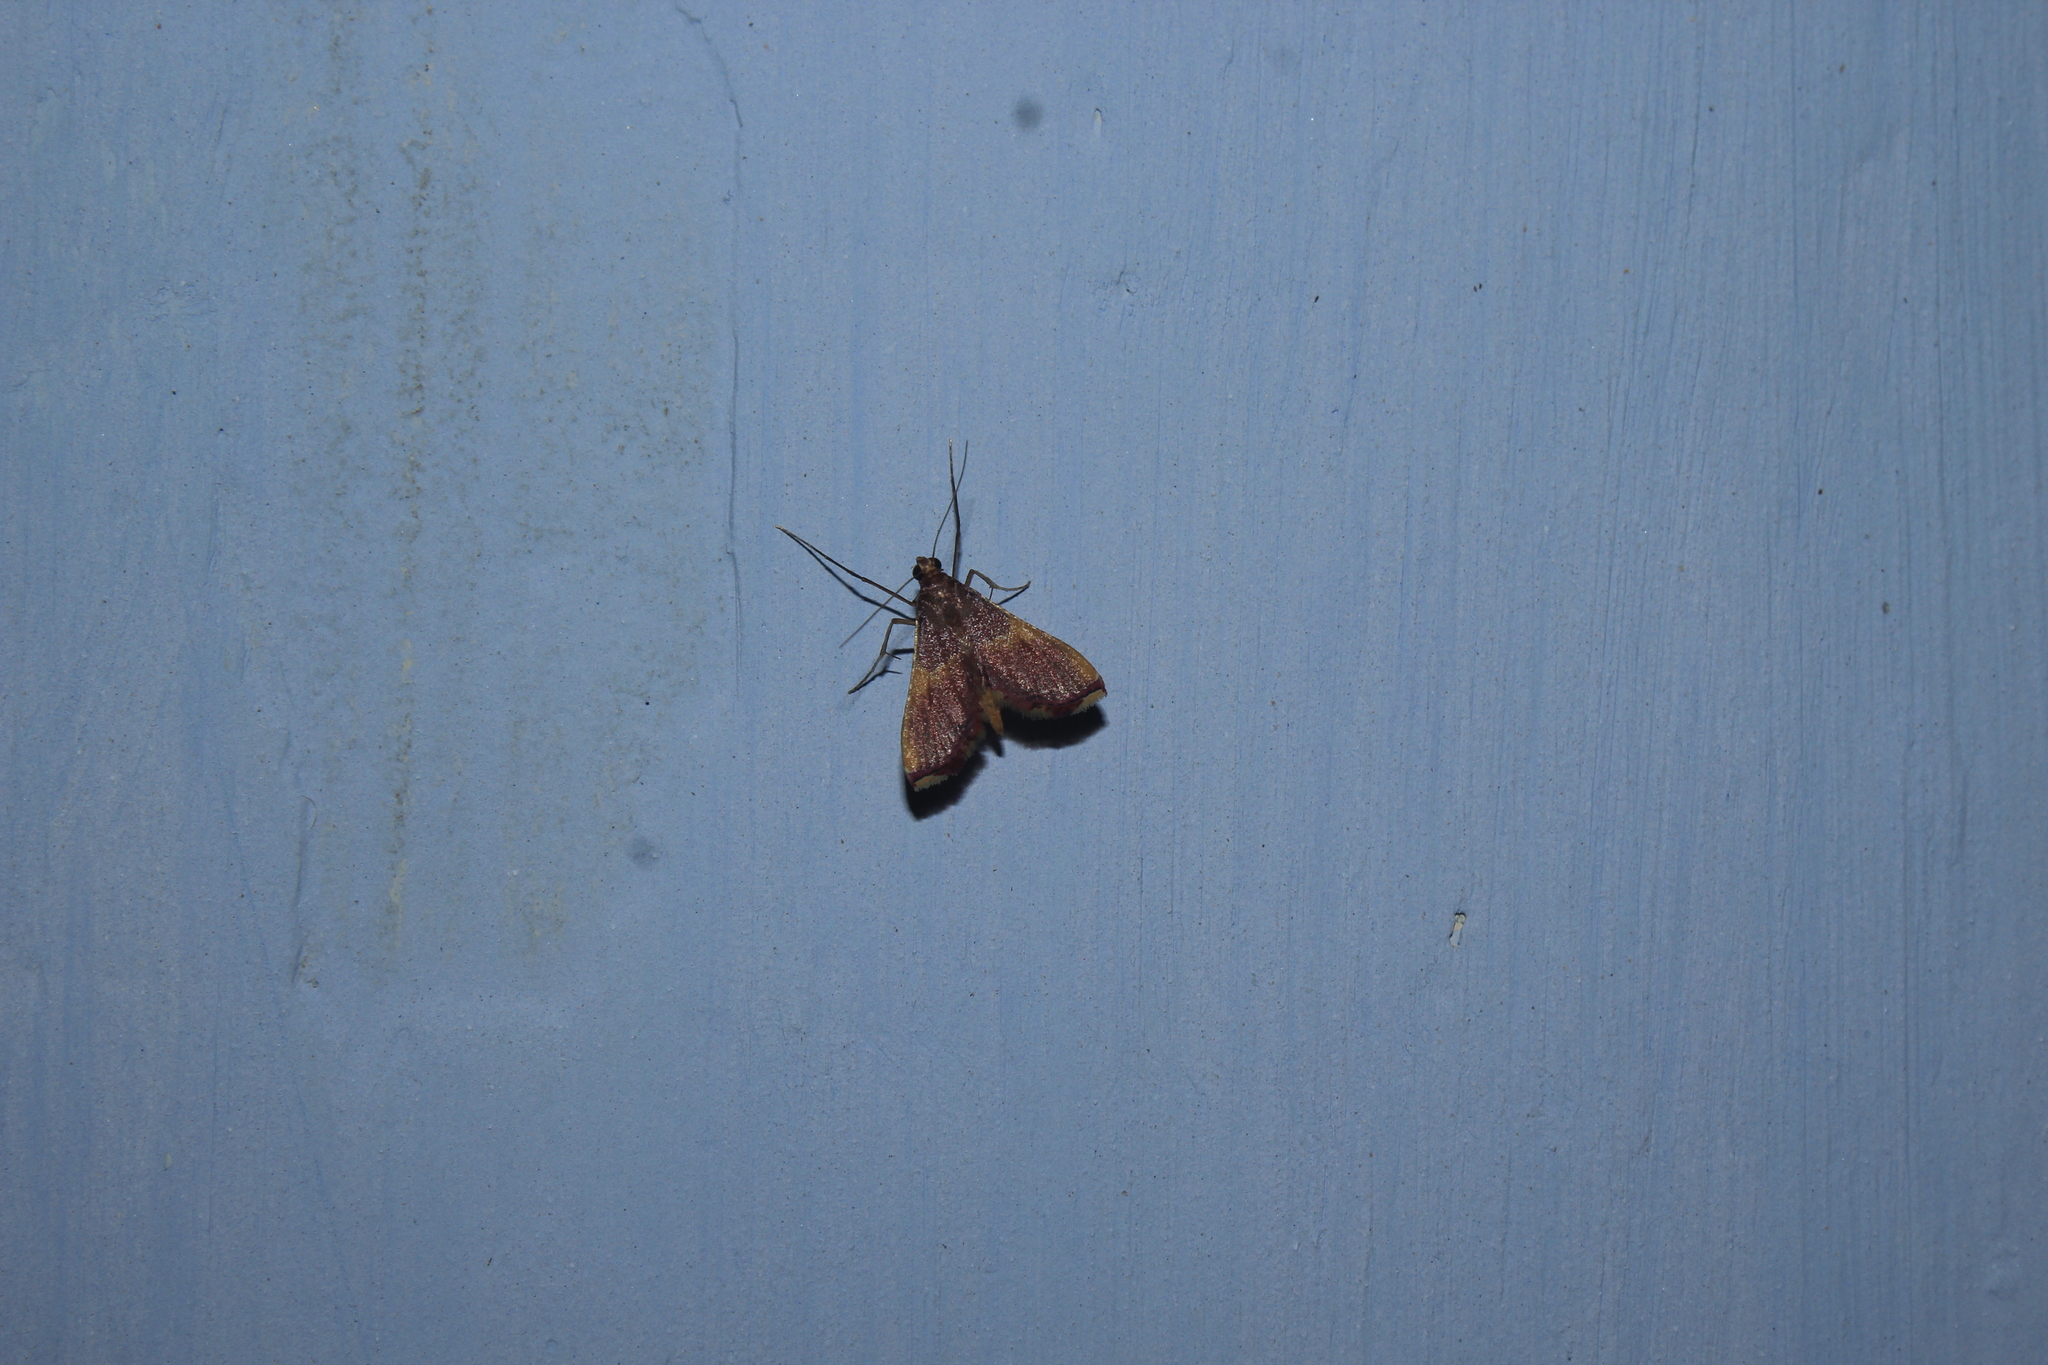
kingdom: Animalia
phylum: Arthropoda
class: Insecta
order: Lepidoptera
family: Pyralidae
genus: Endotricha
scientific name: Endotricha mesenterialis
